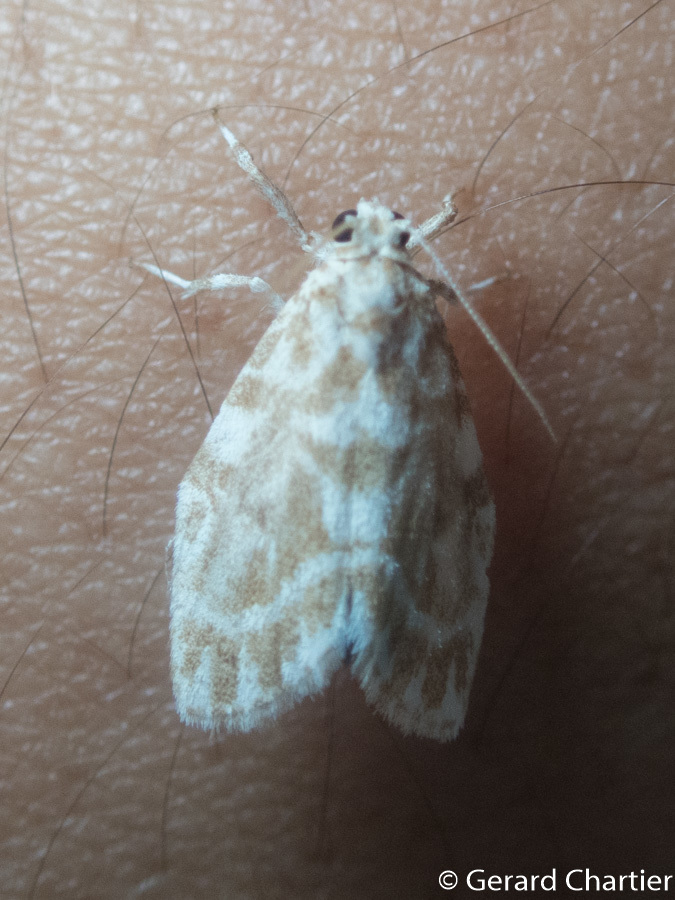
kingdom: Animalia
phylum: Arthropoda
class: Insecta
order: Lepidoptera
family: Erebidae
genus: Cabarda
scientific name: Cabarda sequens
